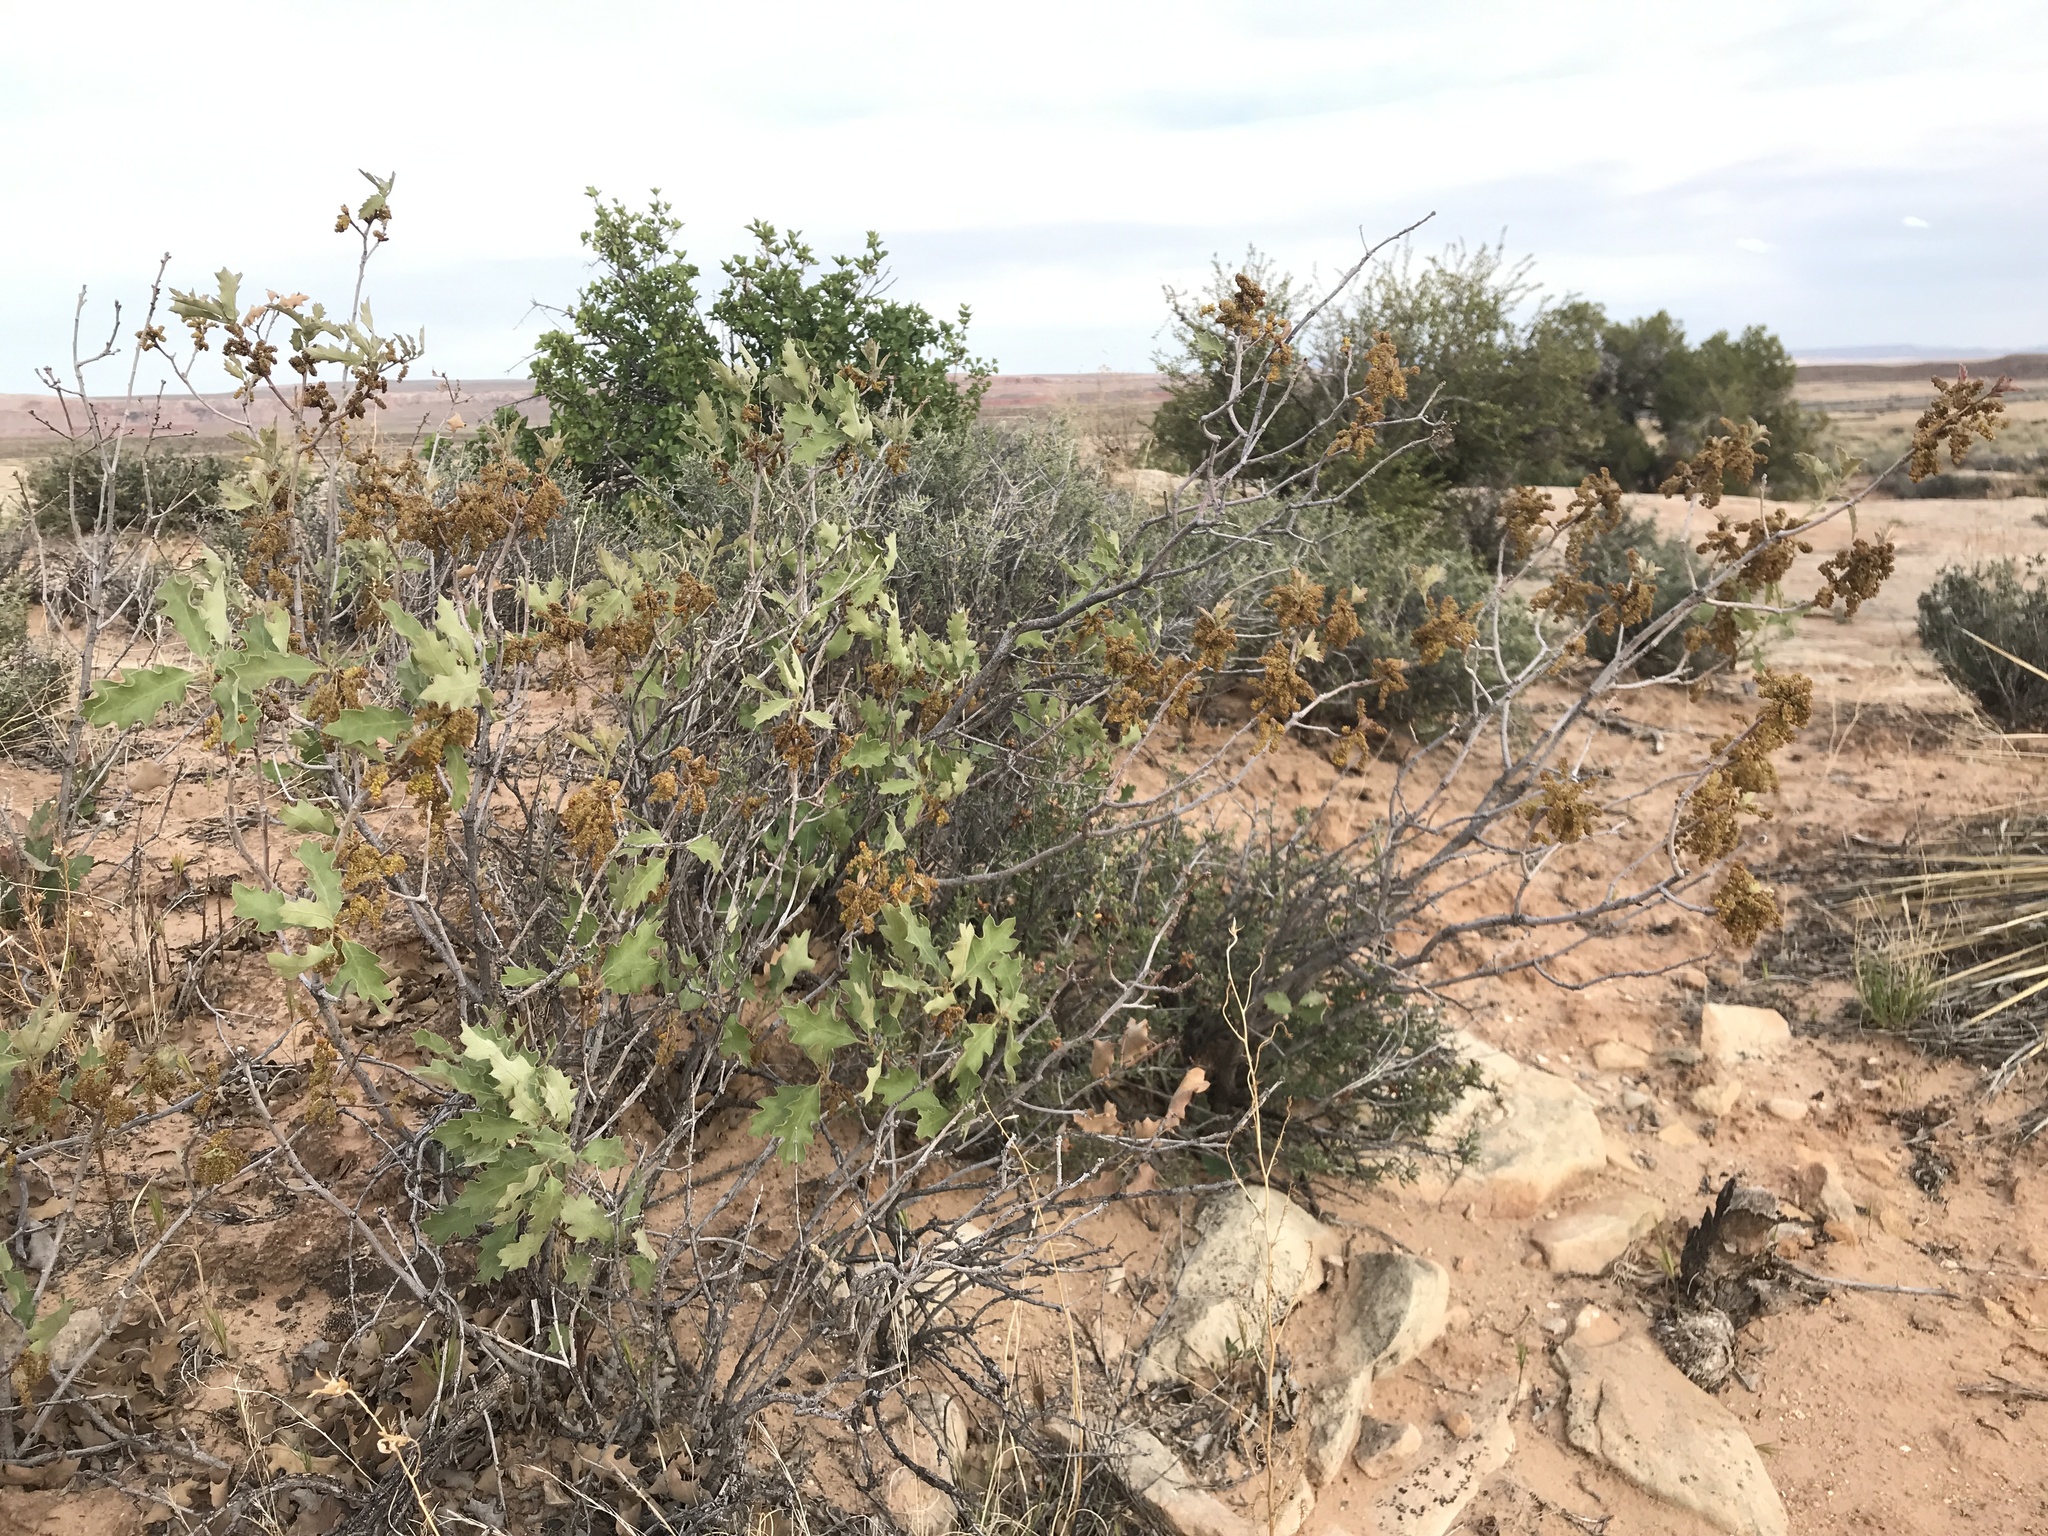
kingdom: Plantae
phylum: Tracheophyta
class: Magnoliopsida
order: Fagales
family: Fagaceae
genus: Quercus
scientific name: Quercus welshii
